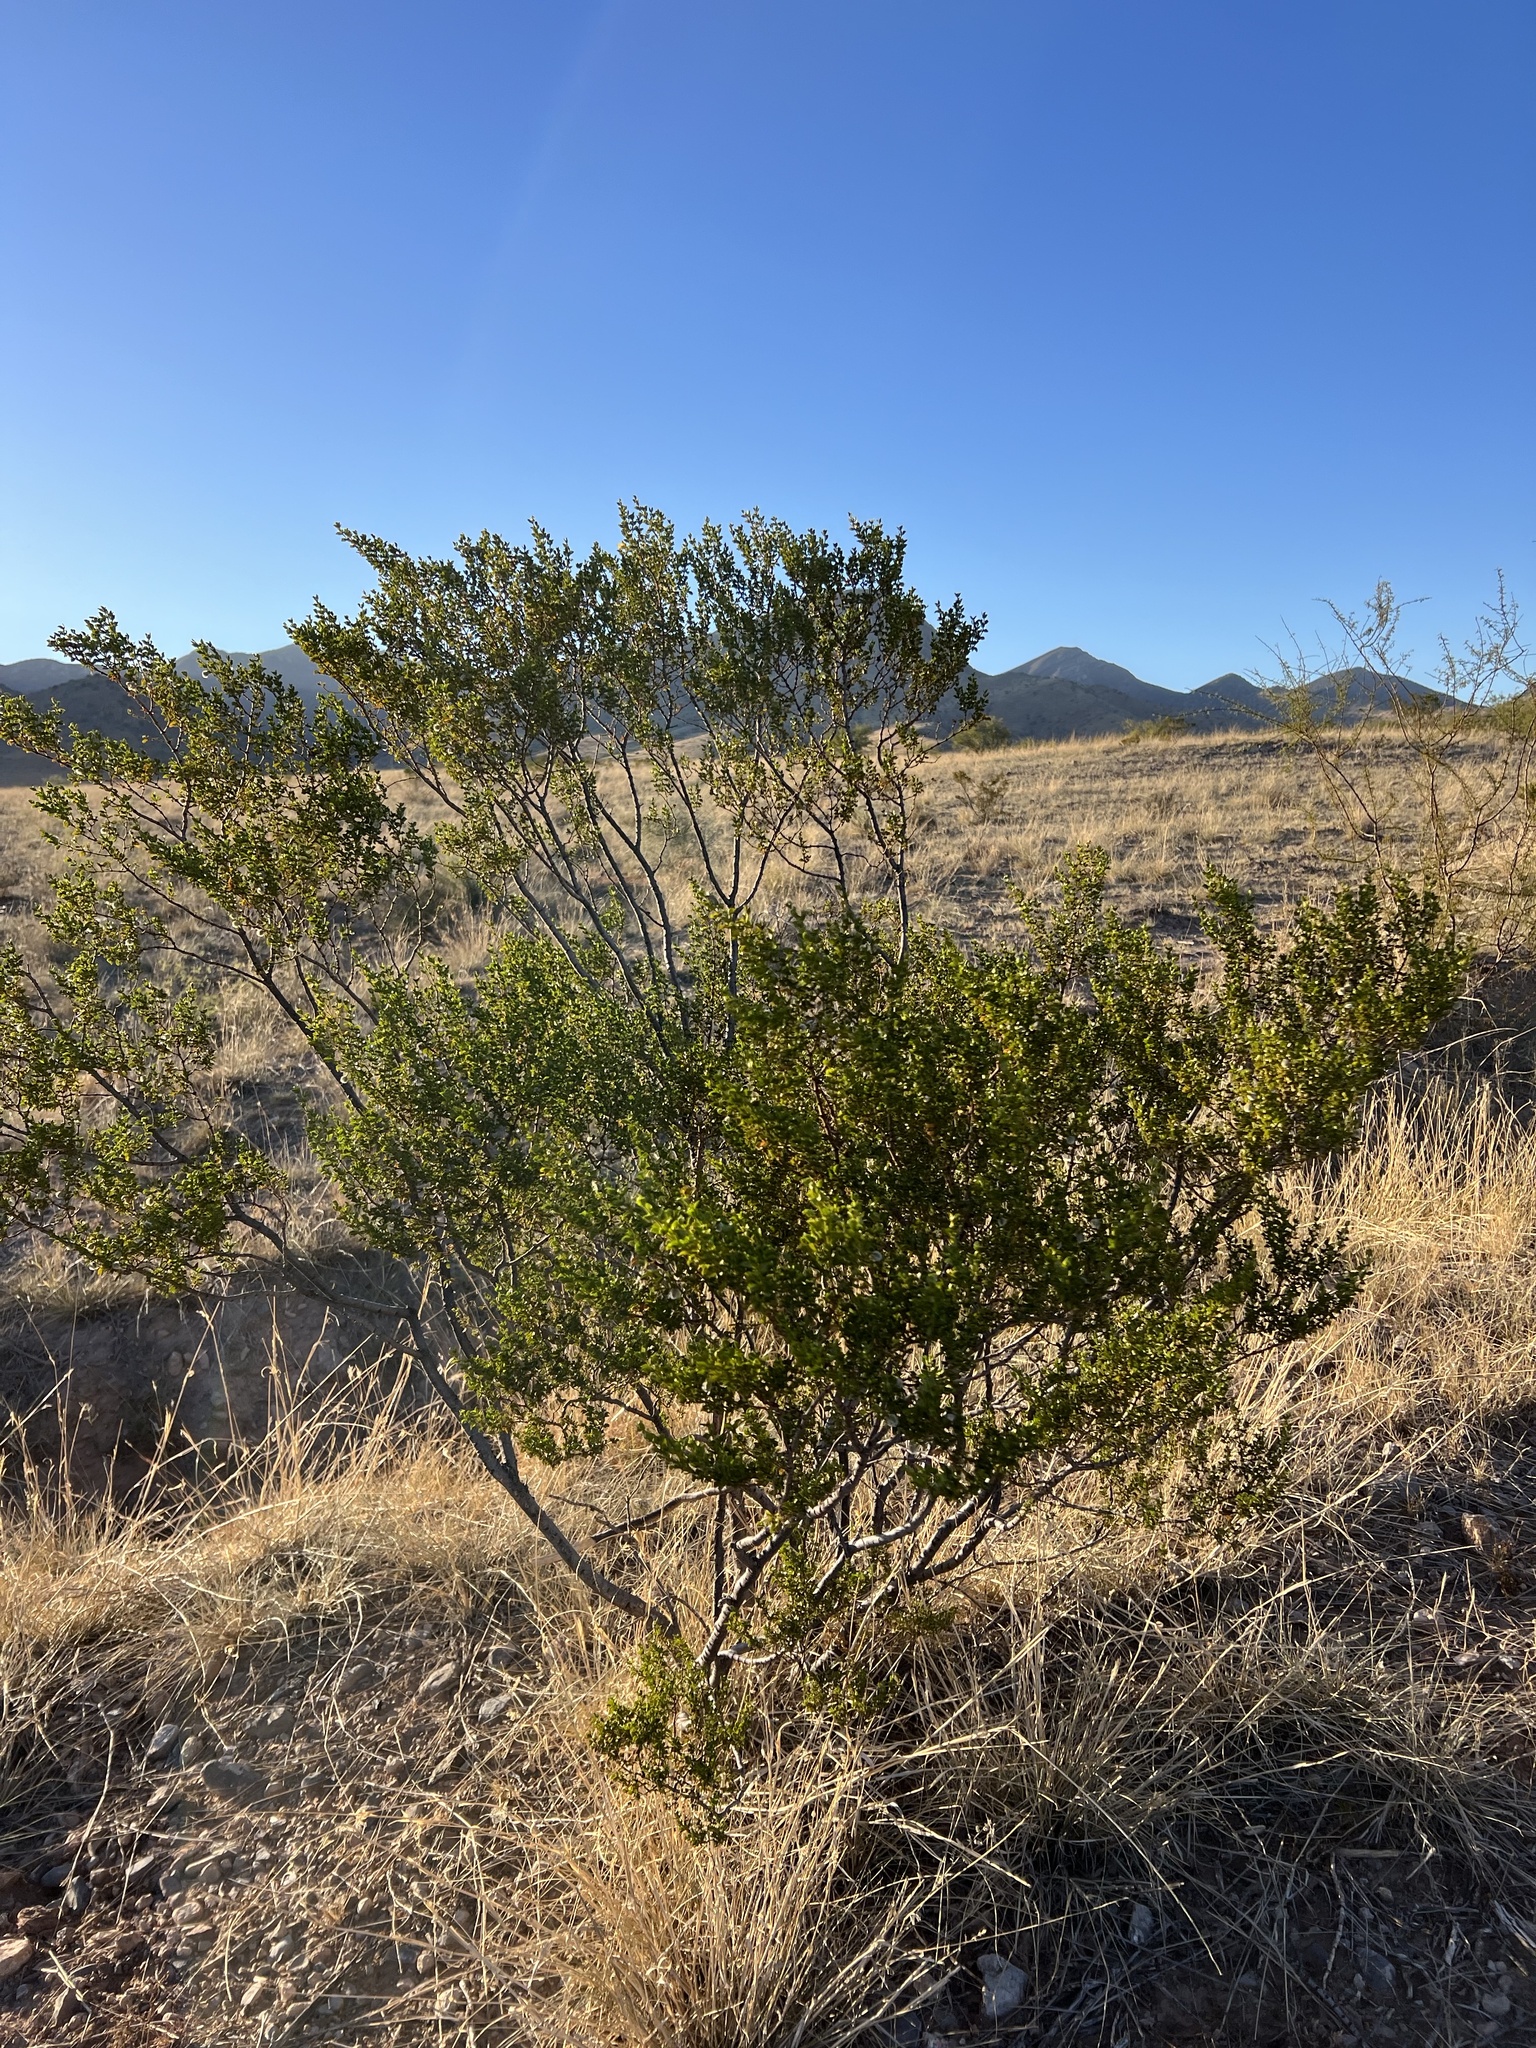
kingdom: Plantae
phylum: Tracheophyta
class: Magnoliopsida
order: Zygophyllales
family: Zygophyllaceae
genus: Larrea
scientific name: Larrea tridentata
